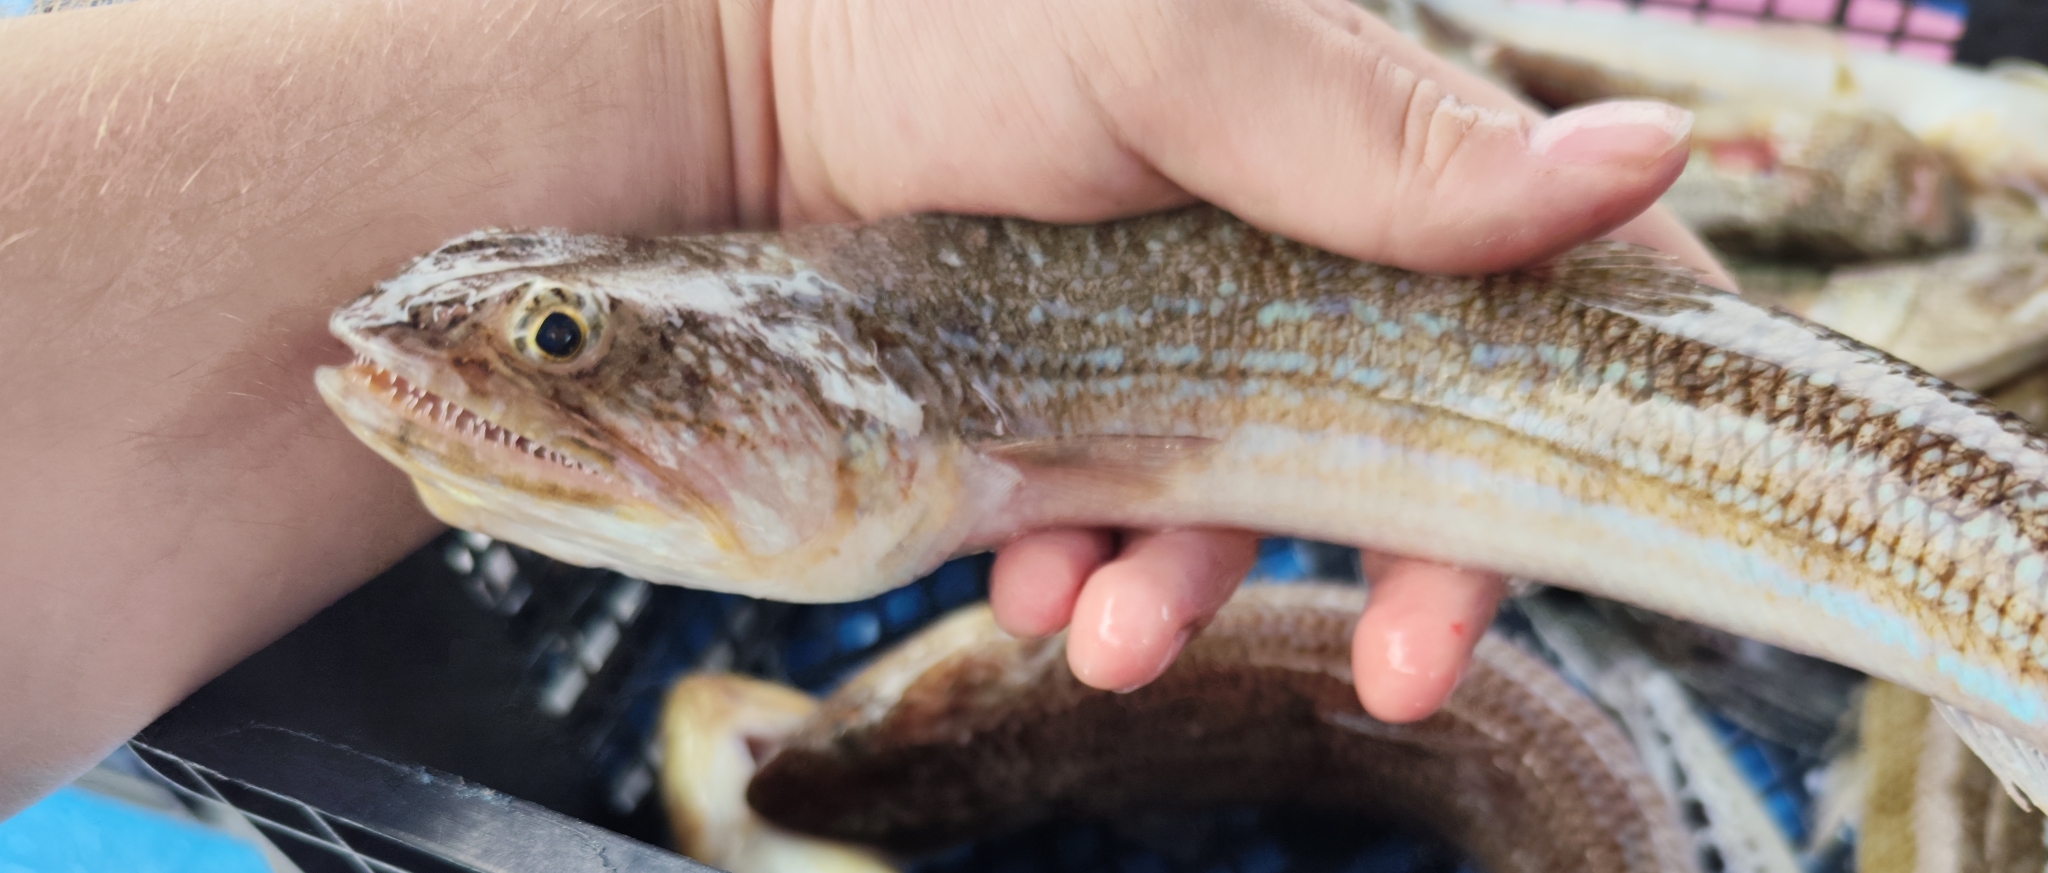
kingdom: Animalia
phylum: Chordata
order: Aulopiformes
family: Synodontidae
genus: Synodus
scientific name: Synodus saurus
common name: Atlantic lizardfish
